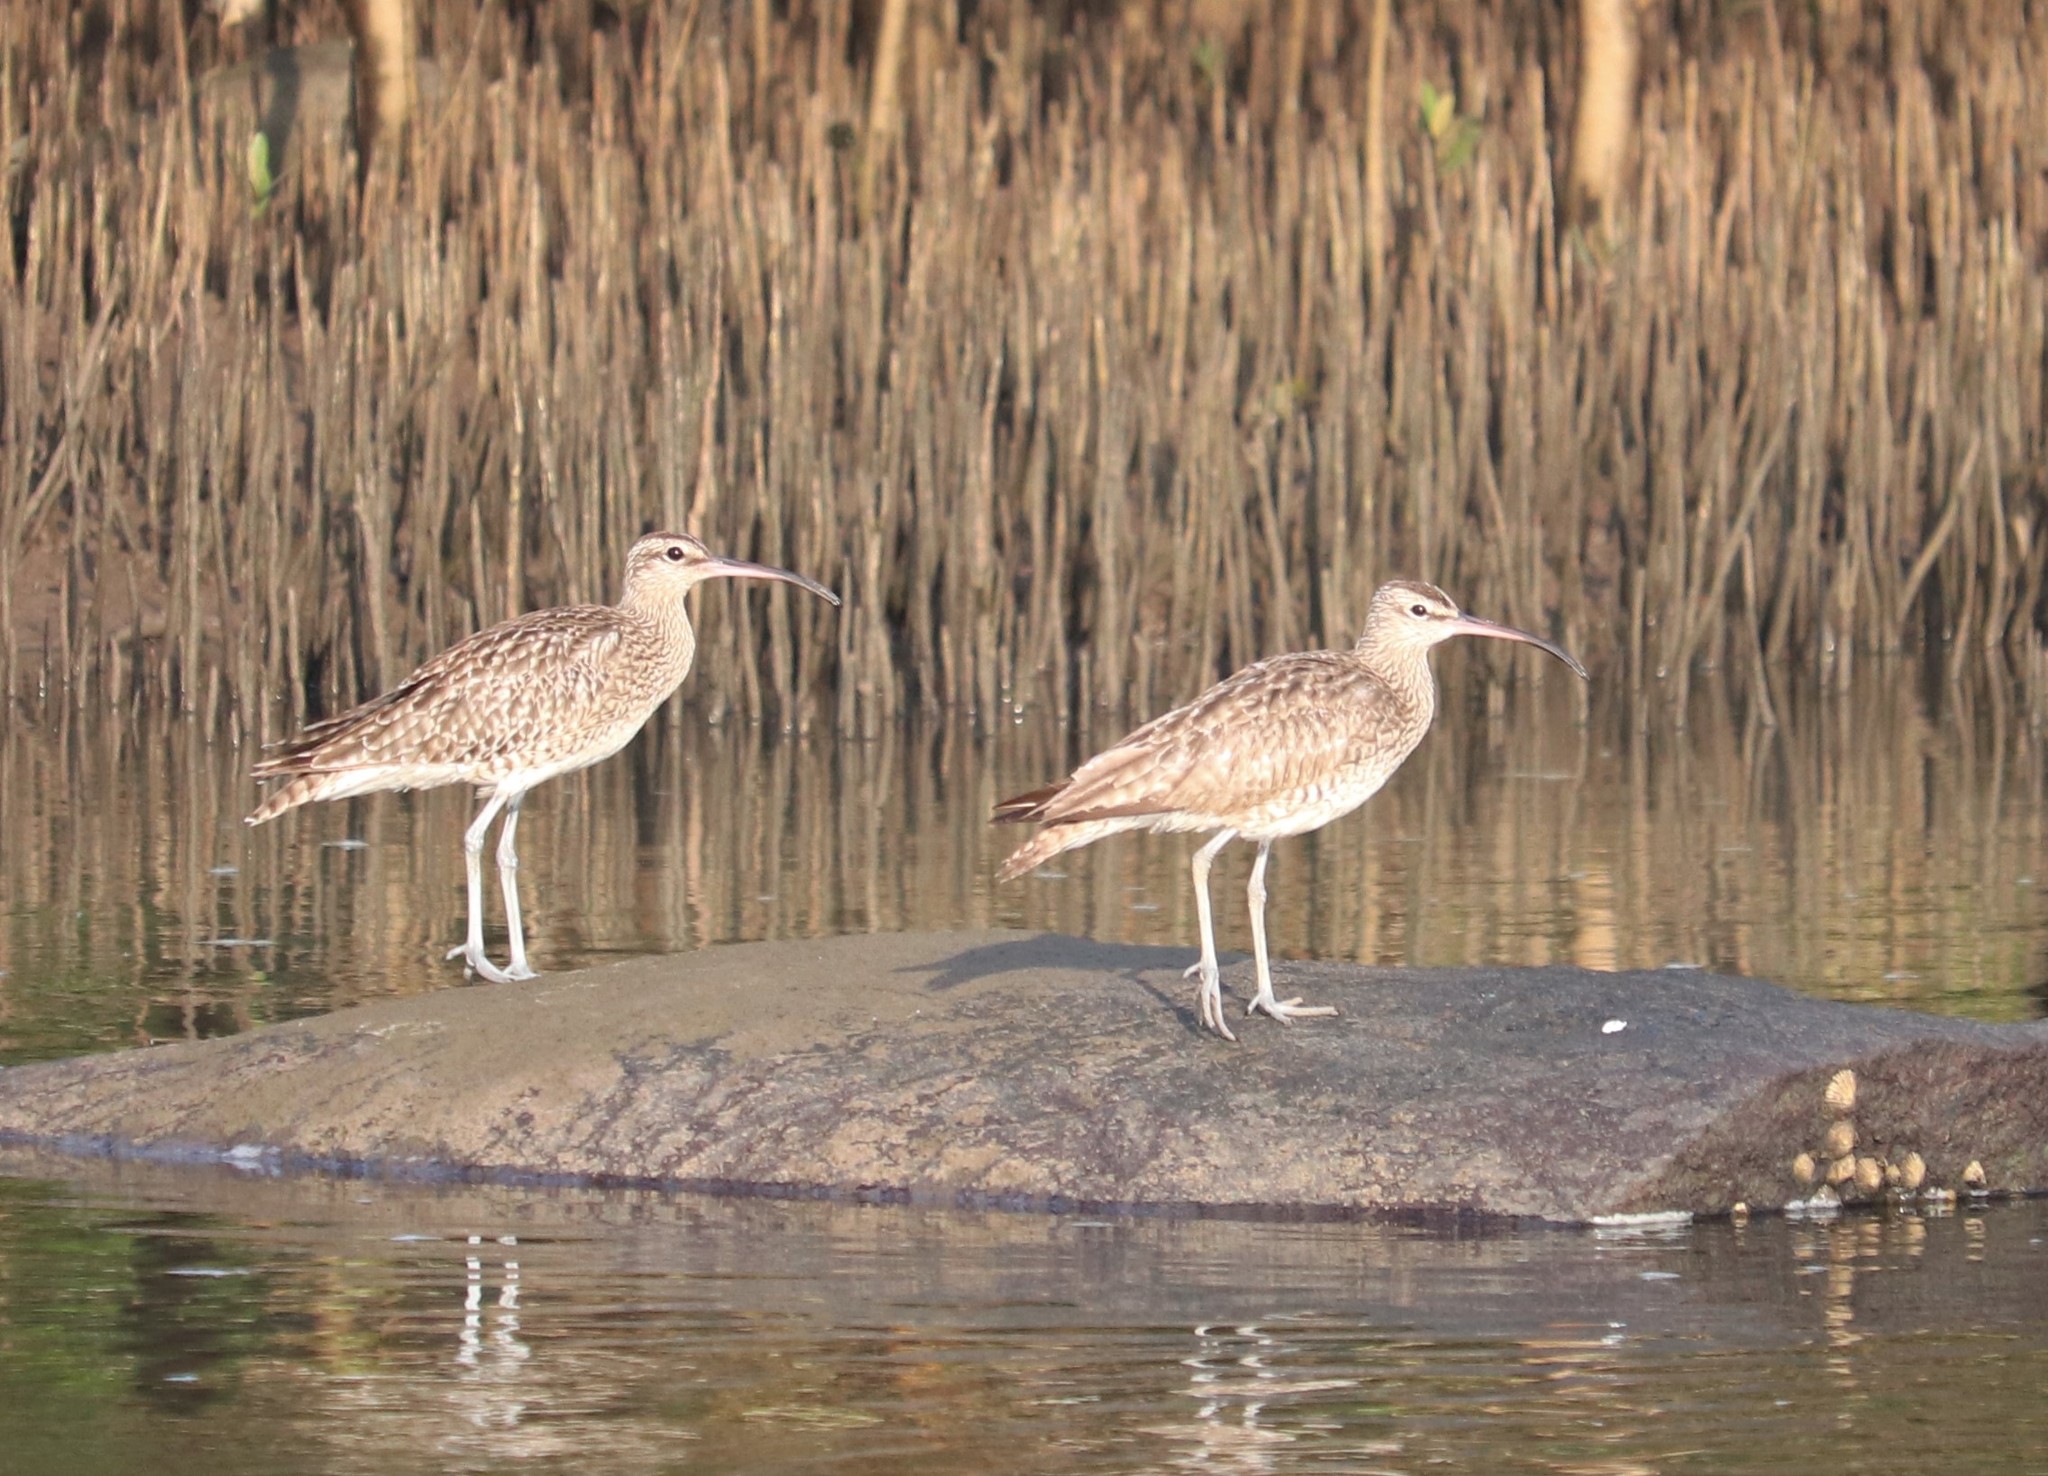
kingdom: Animalia
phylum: Chordata
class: Aves
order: Charadriiformes
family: Scolopacidae
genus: Numenius
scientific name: Numenius phaeopus
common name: Whimbrel
